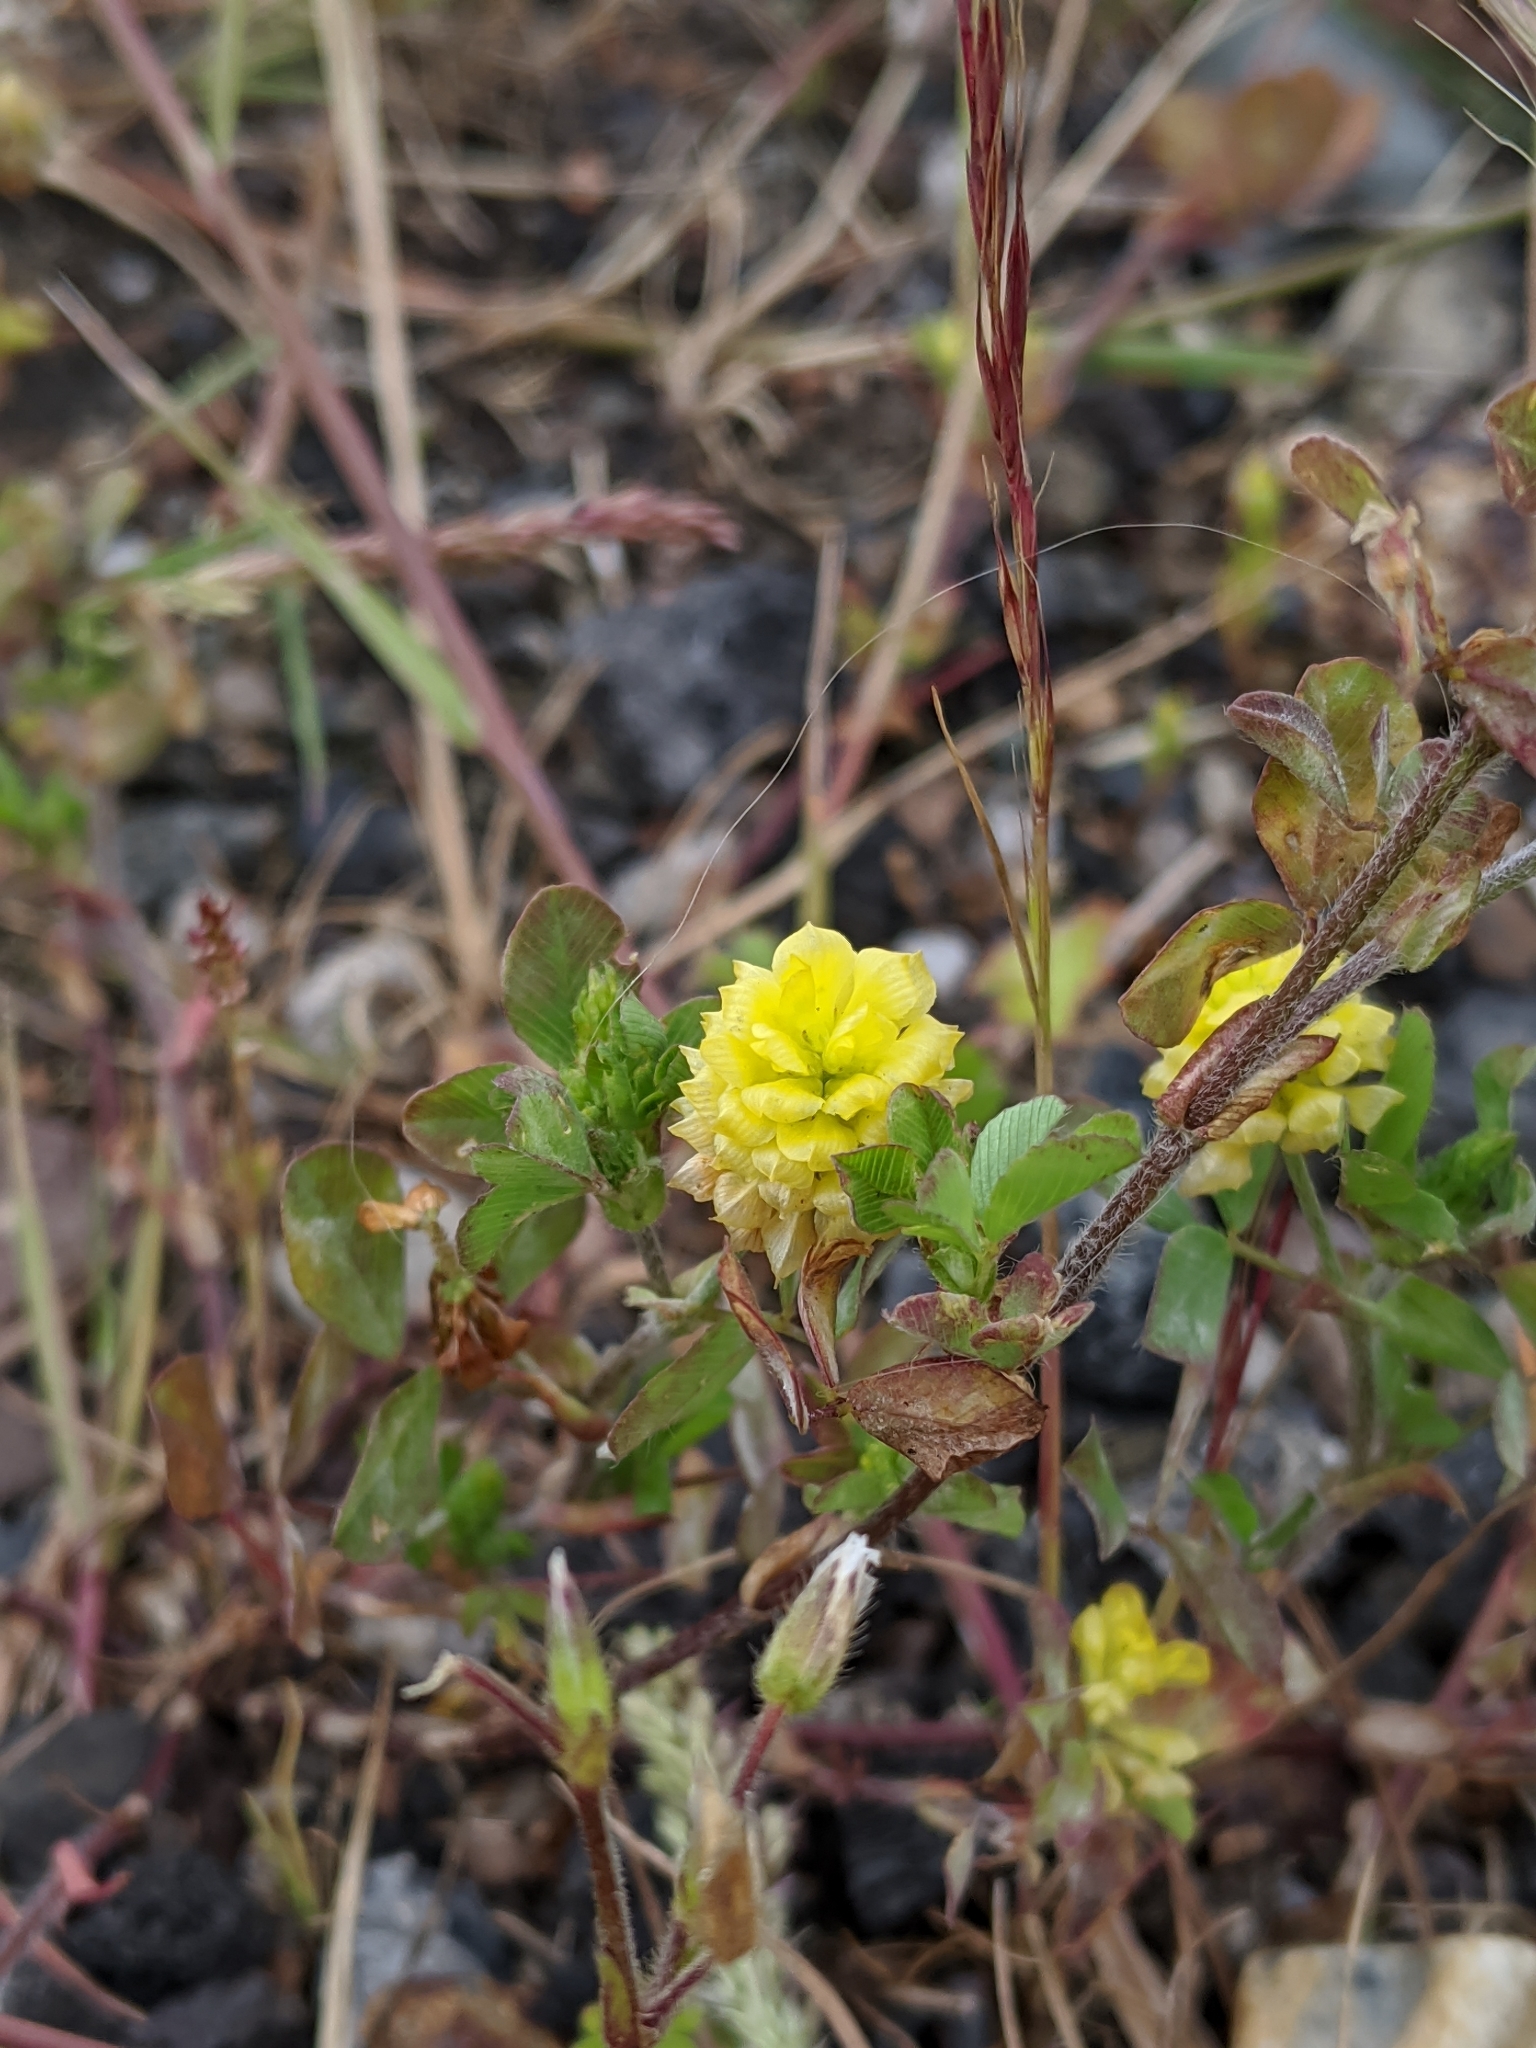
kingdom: Plantae
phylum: Tracheophyta
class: Magnoliopsida
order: Fabales
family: Fabaceae
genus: Trifolium
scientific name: Trifolium campestre
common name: Field clover
